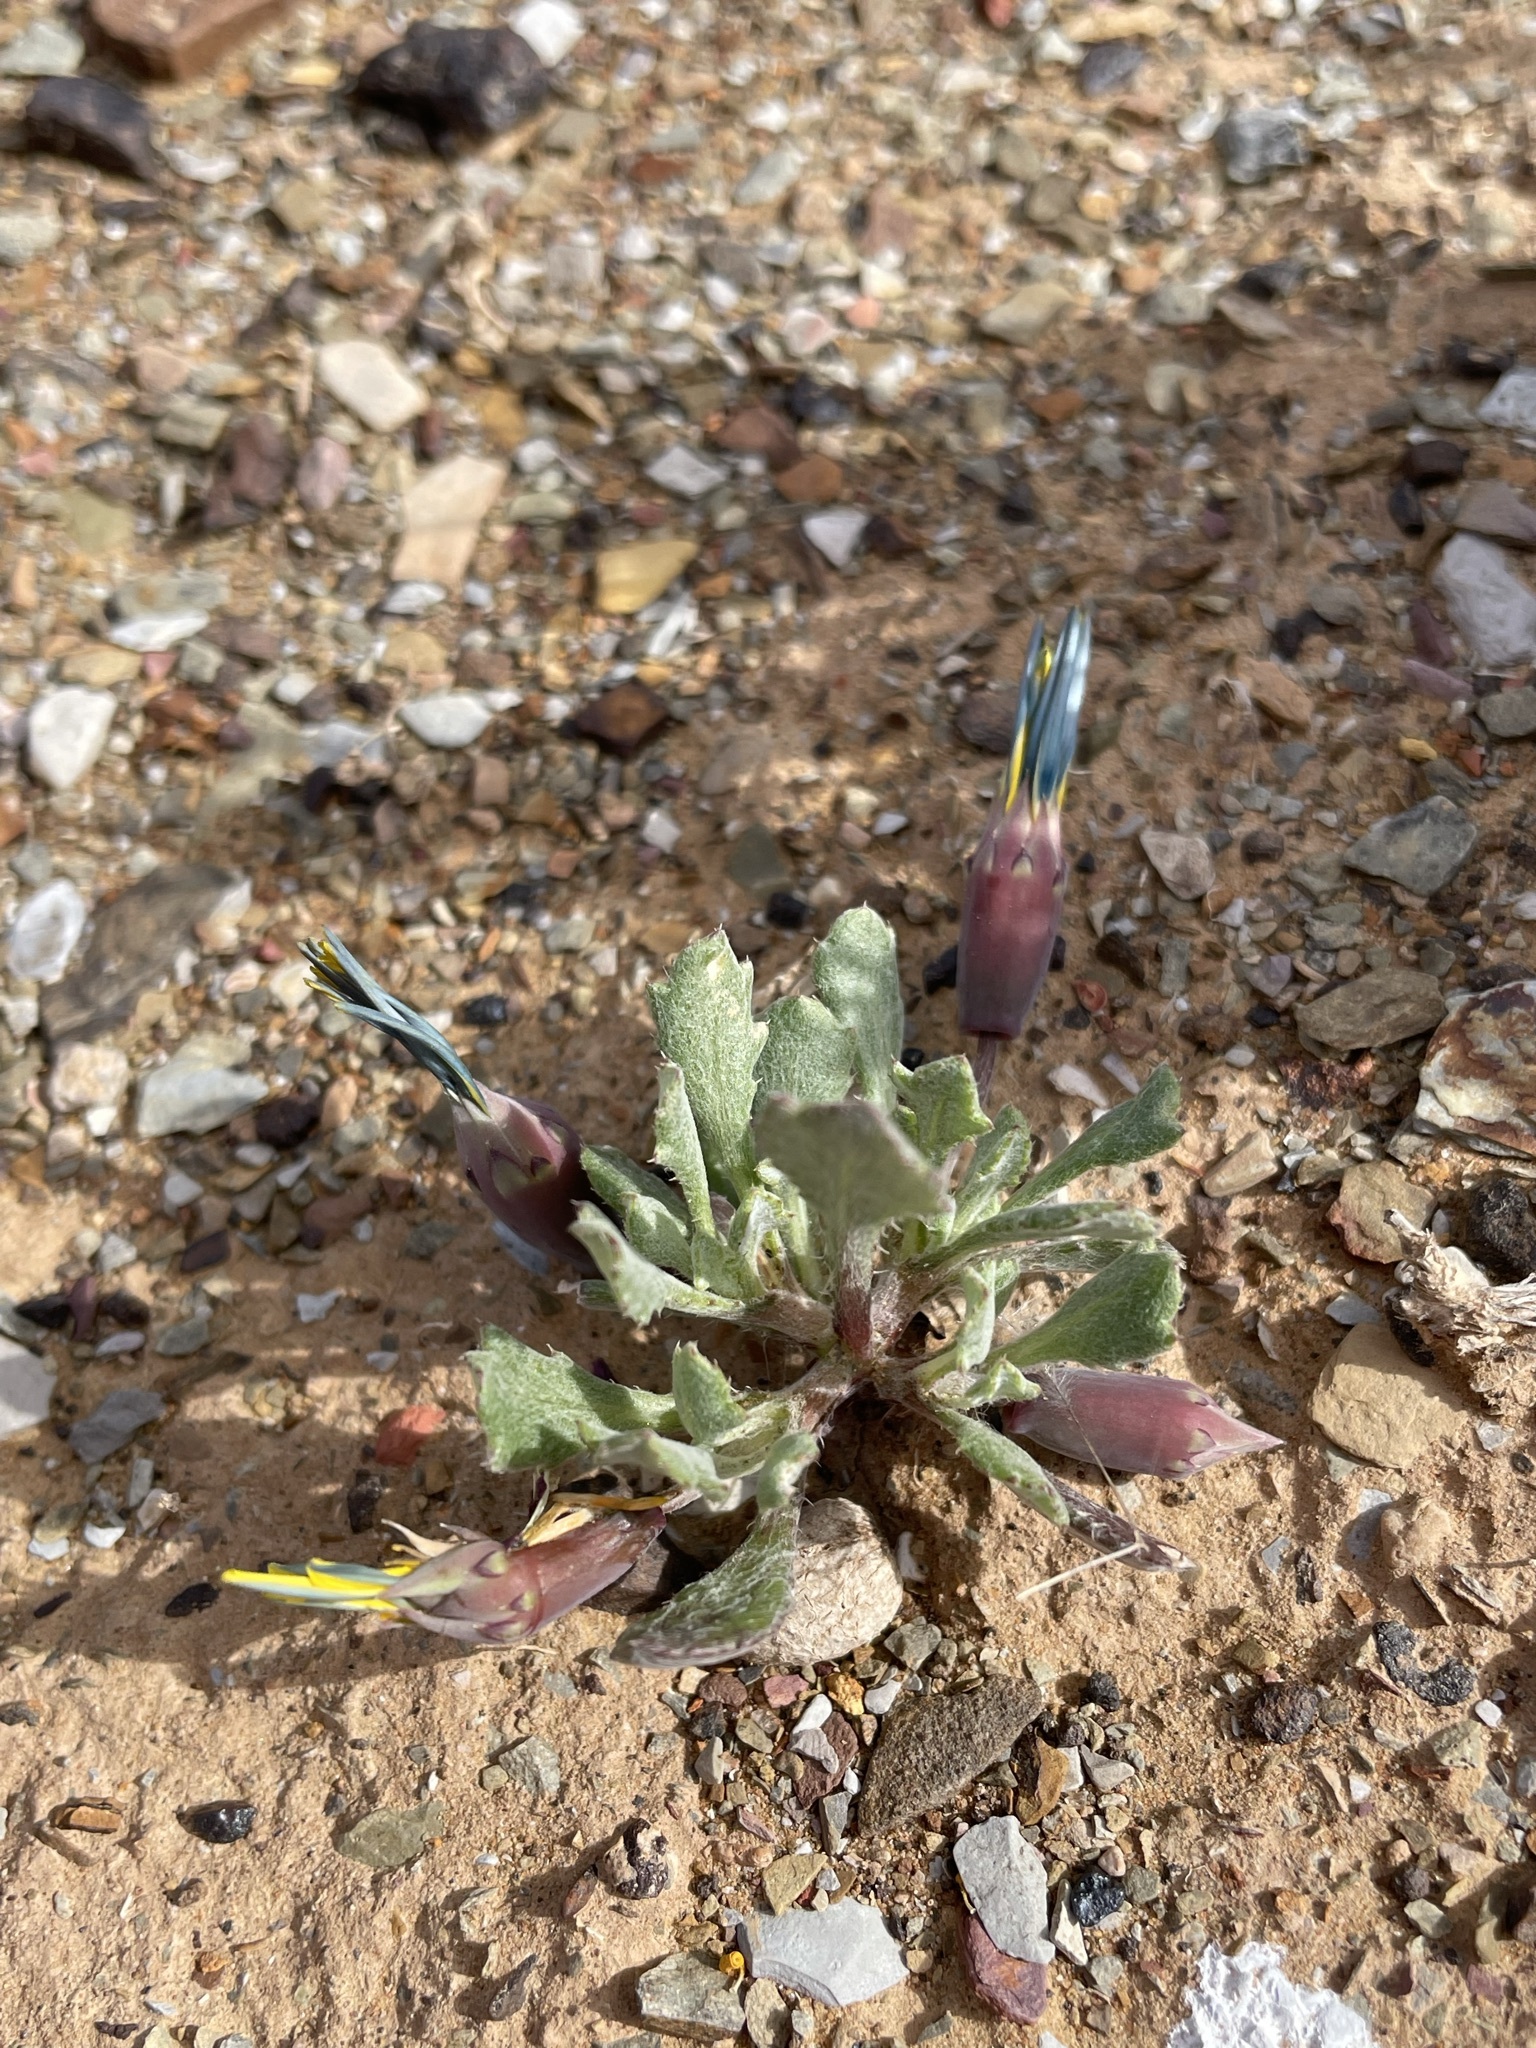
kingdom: Plantae
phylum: Tracheophyta
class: Magnoliopsida
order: Asterales
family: Asteraceae
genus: Gazania
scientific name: Gazania lichtensteinii
